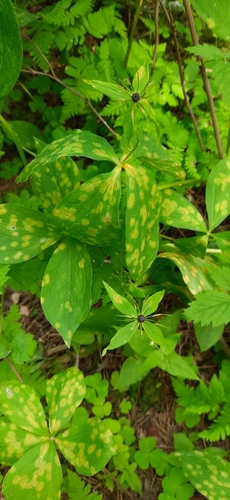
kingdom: Fungi
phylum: Basidiomycota
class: Pucciniomycetes
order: Pucciniales
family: Pucciniaceae
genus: Puccinia
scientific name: Puccinia sessilis
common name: Arum rust
